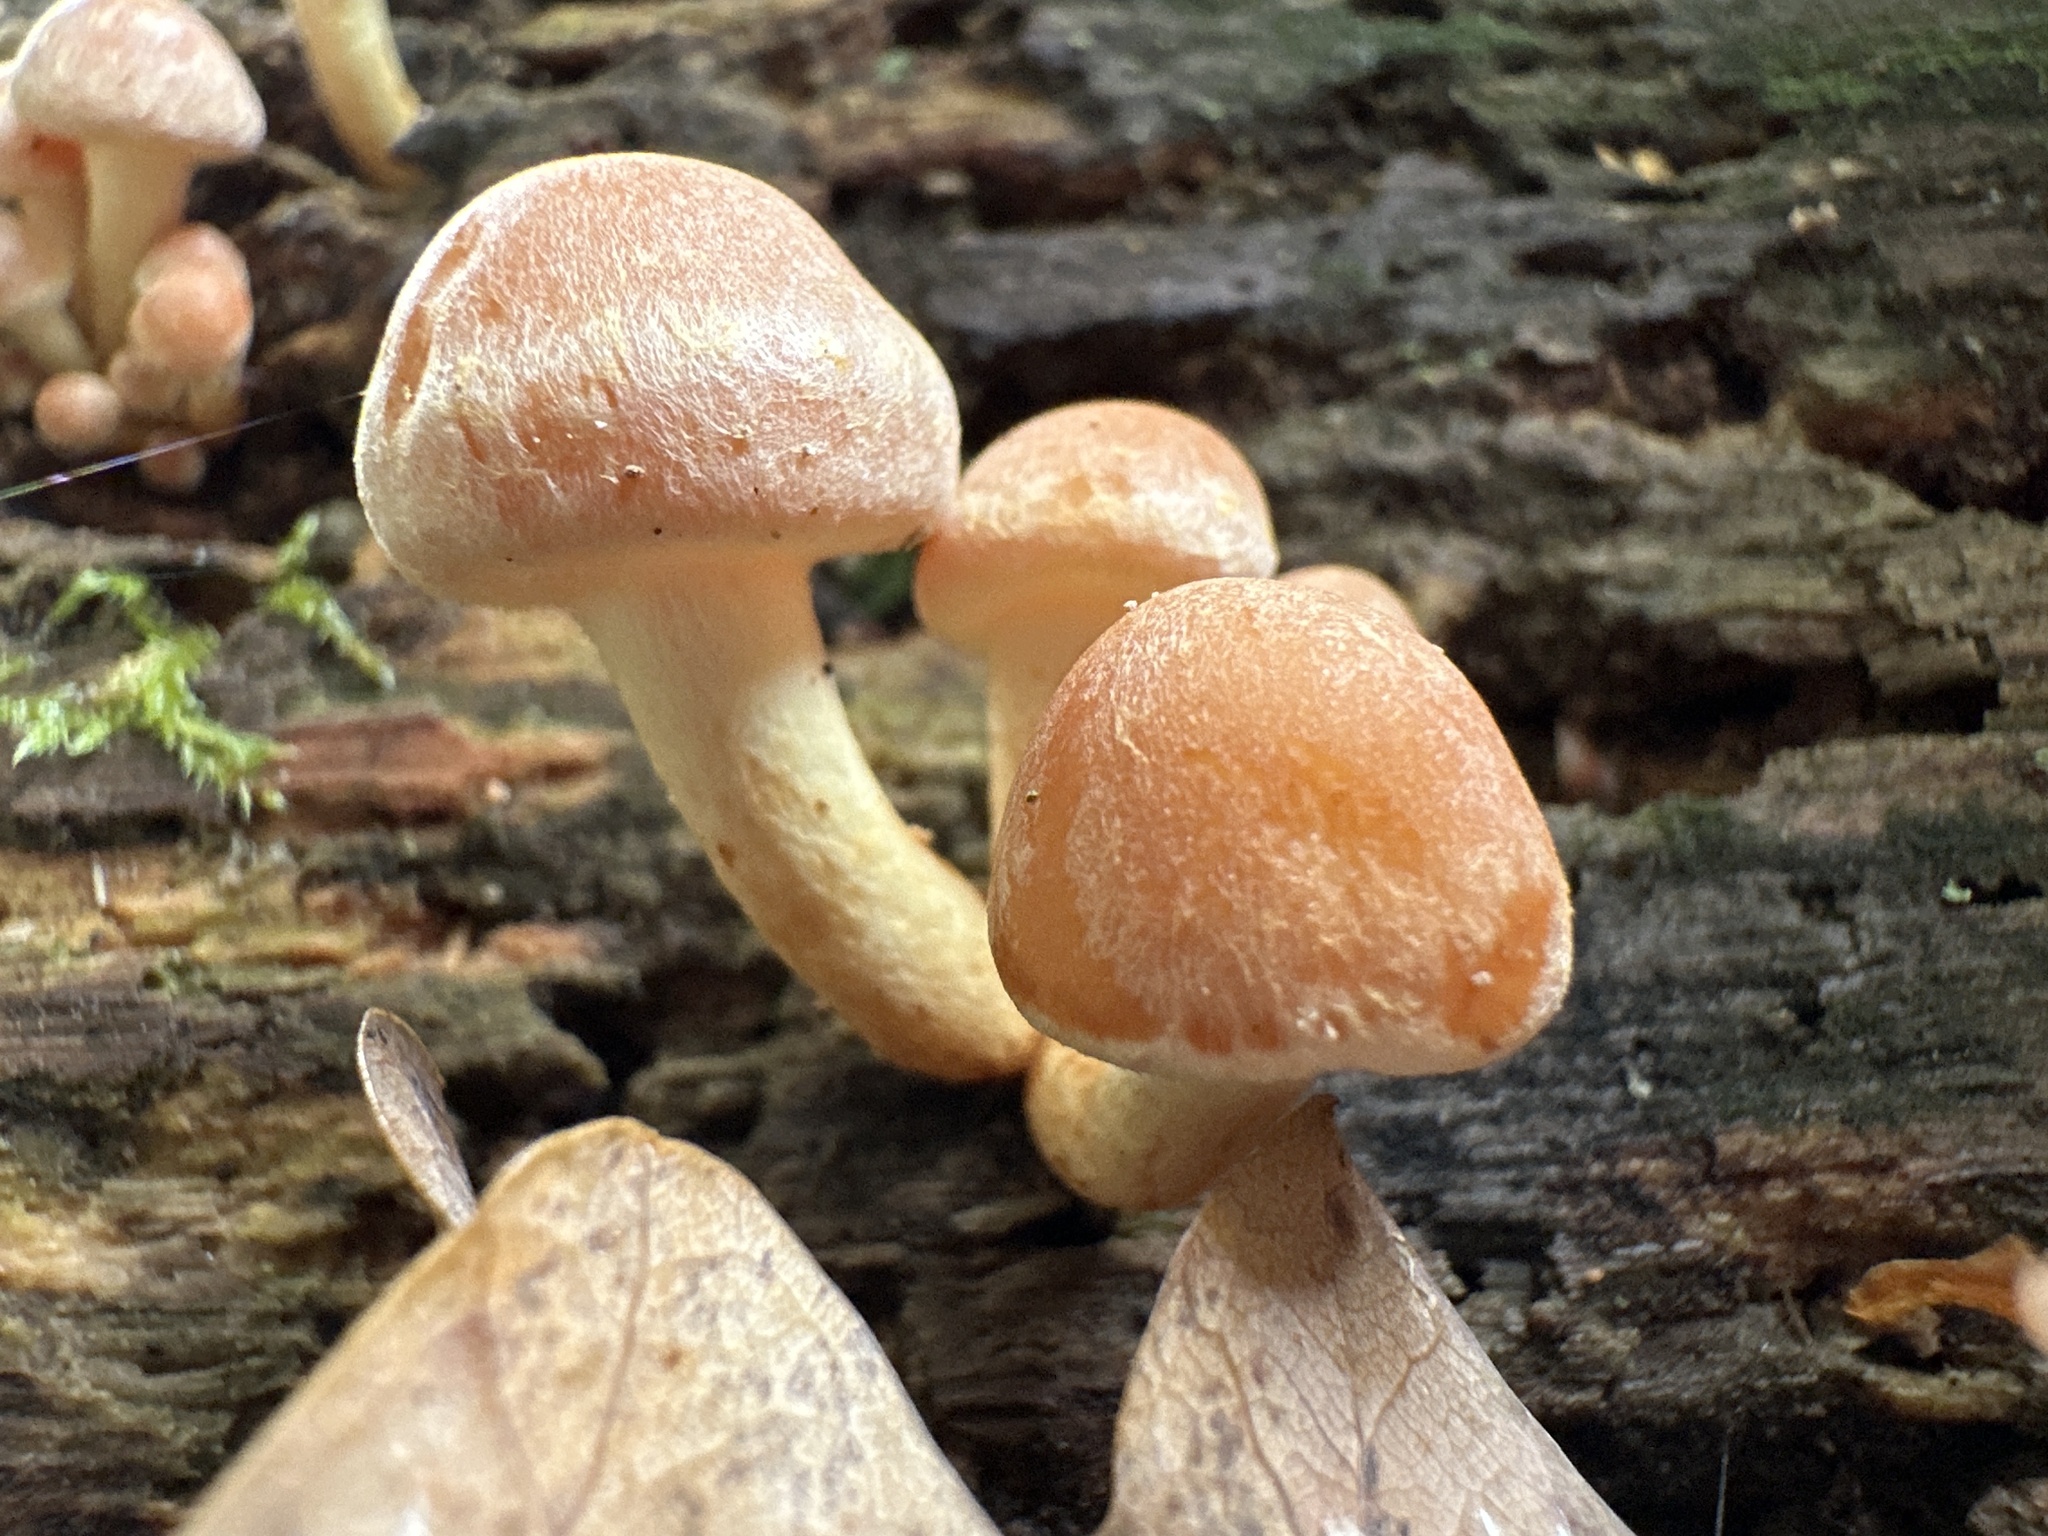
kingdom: Fungi
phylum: Basidiomycota
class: Agaricomycetes
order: Agaricales
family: Strophariaceae
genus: Hypholoma
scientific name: Hypholoma fasciculare
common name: Sulphur tuft
